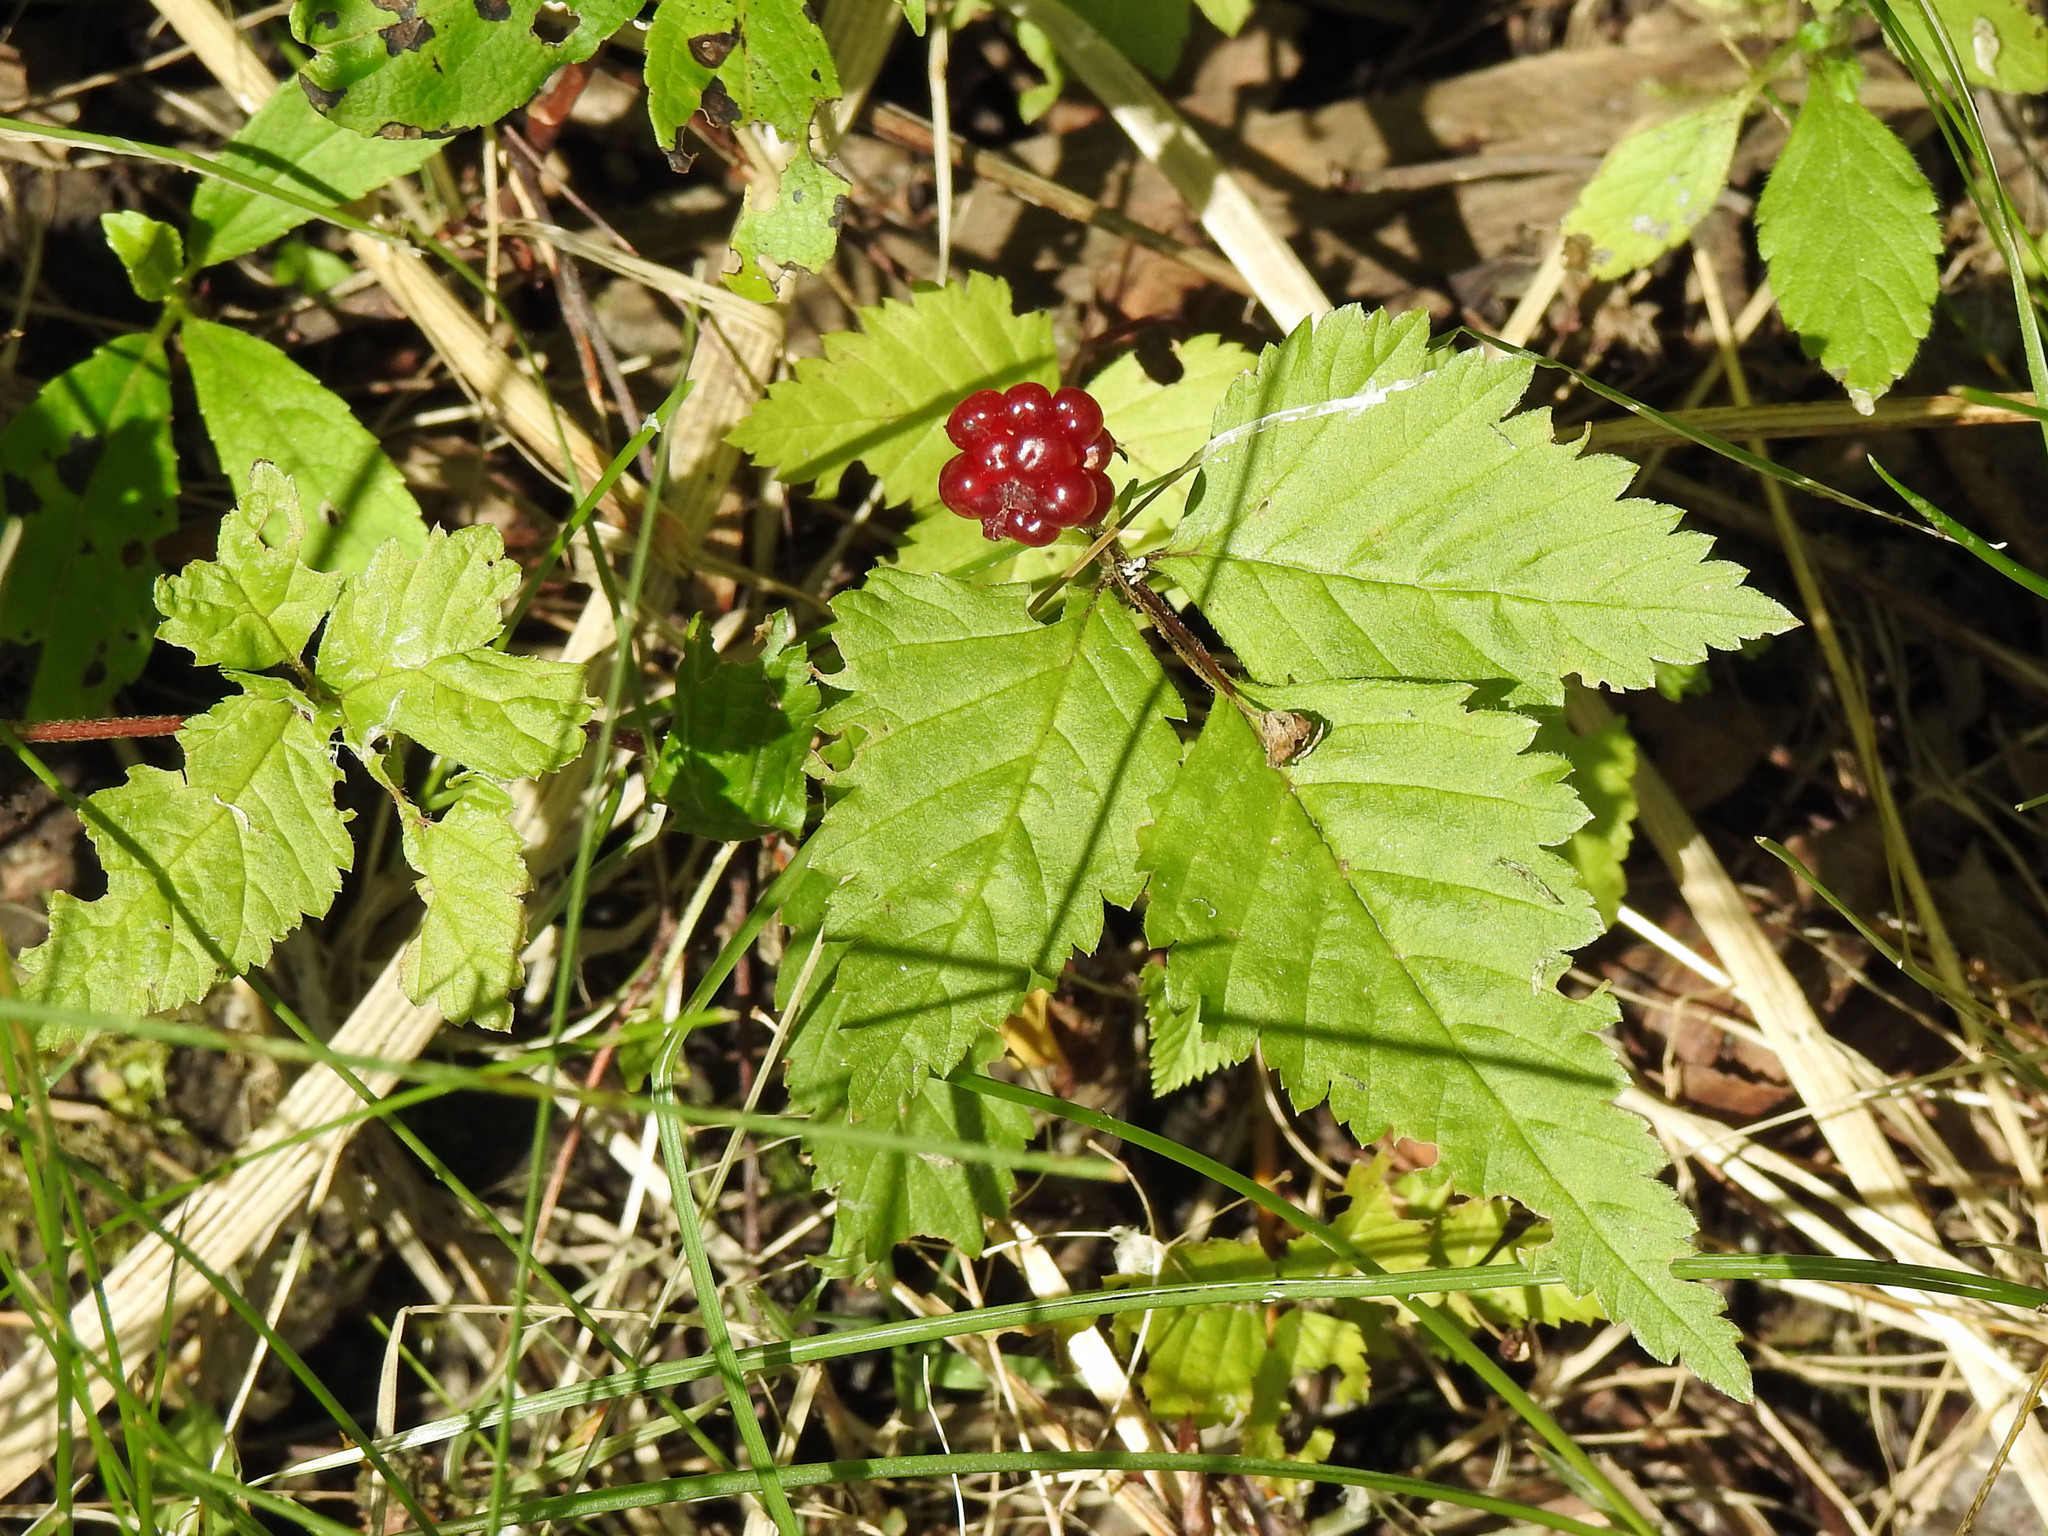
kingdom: Plantae
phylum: Tracheophyta
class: Magnoliopsida
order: Rosales
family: Rosaceae
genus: Rubus
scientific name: Rubus pubescens
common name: Dwarf raspberry
